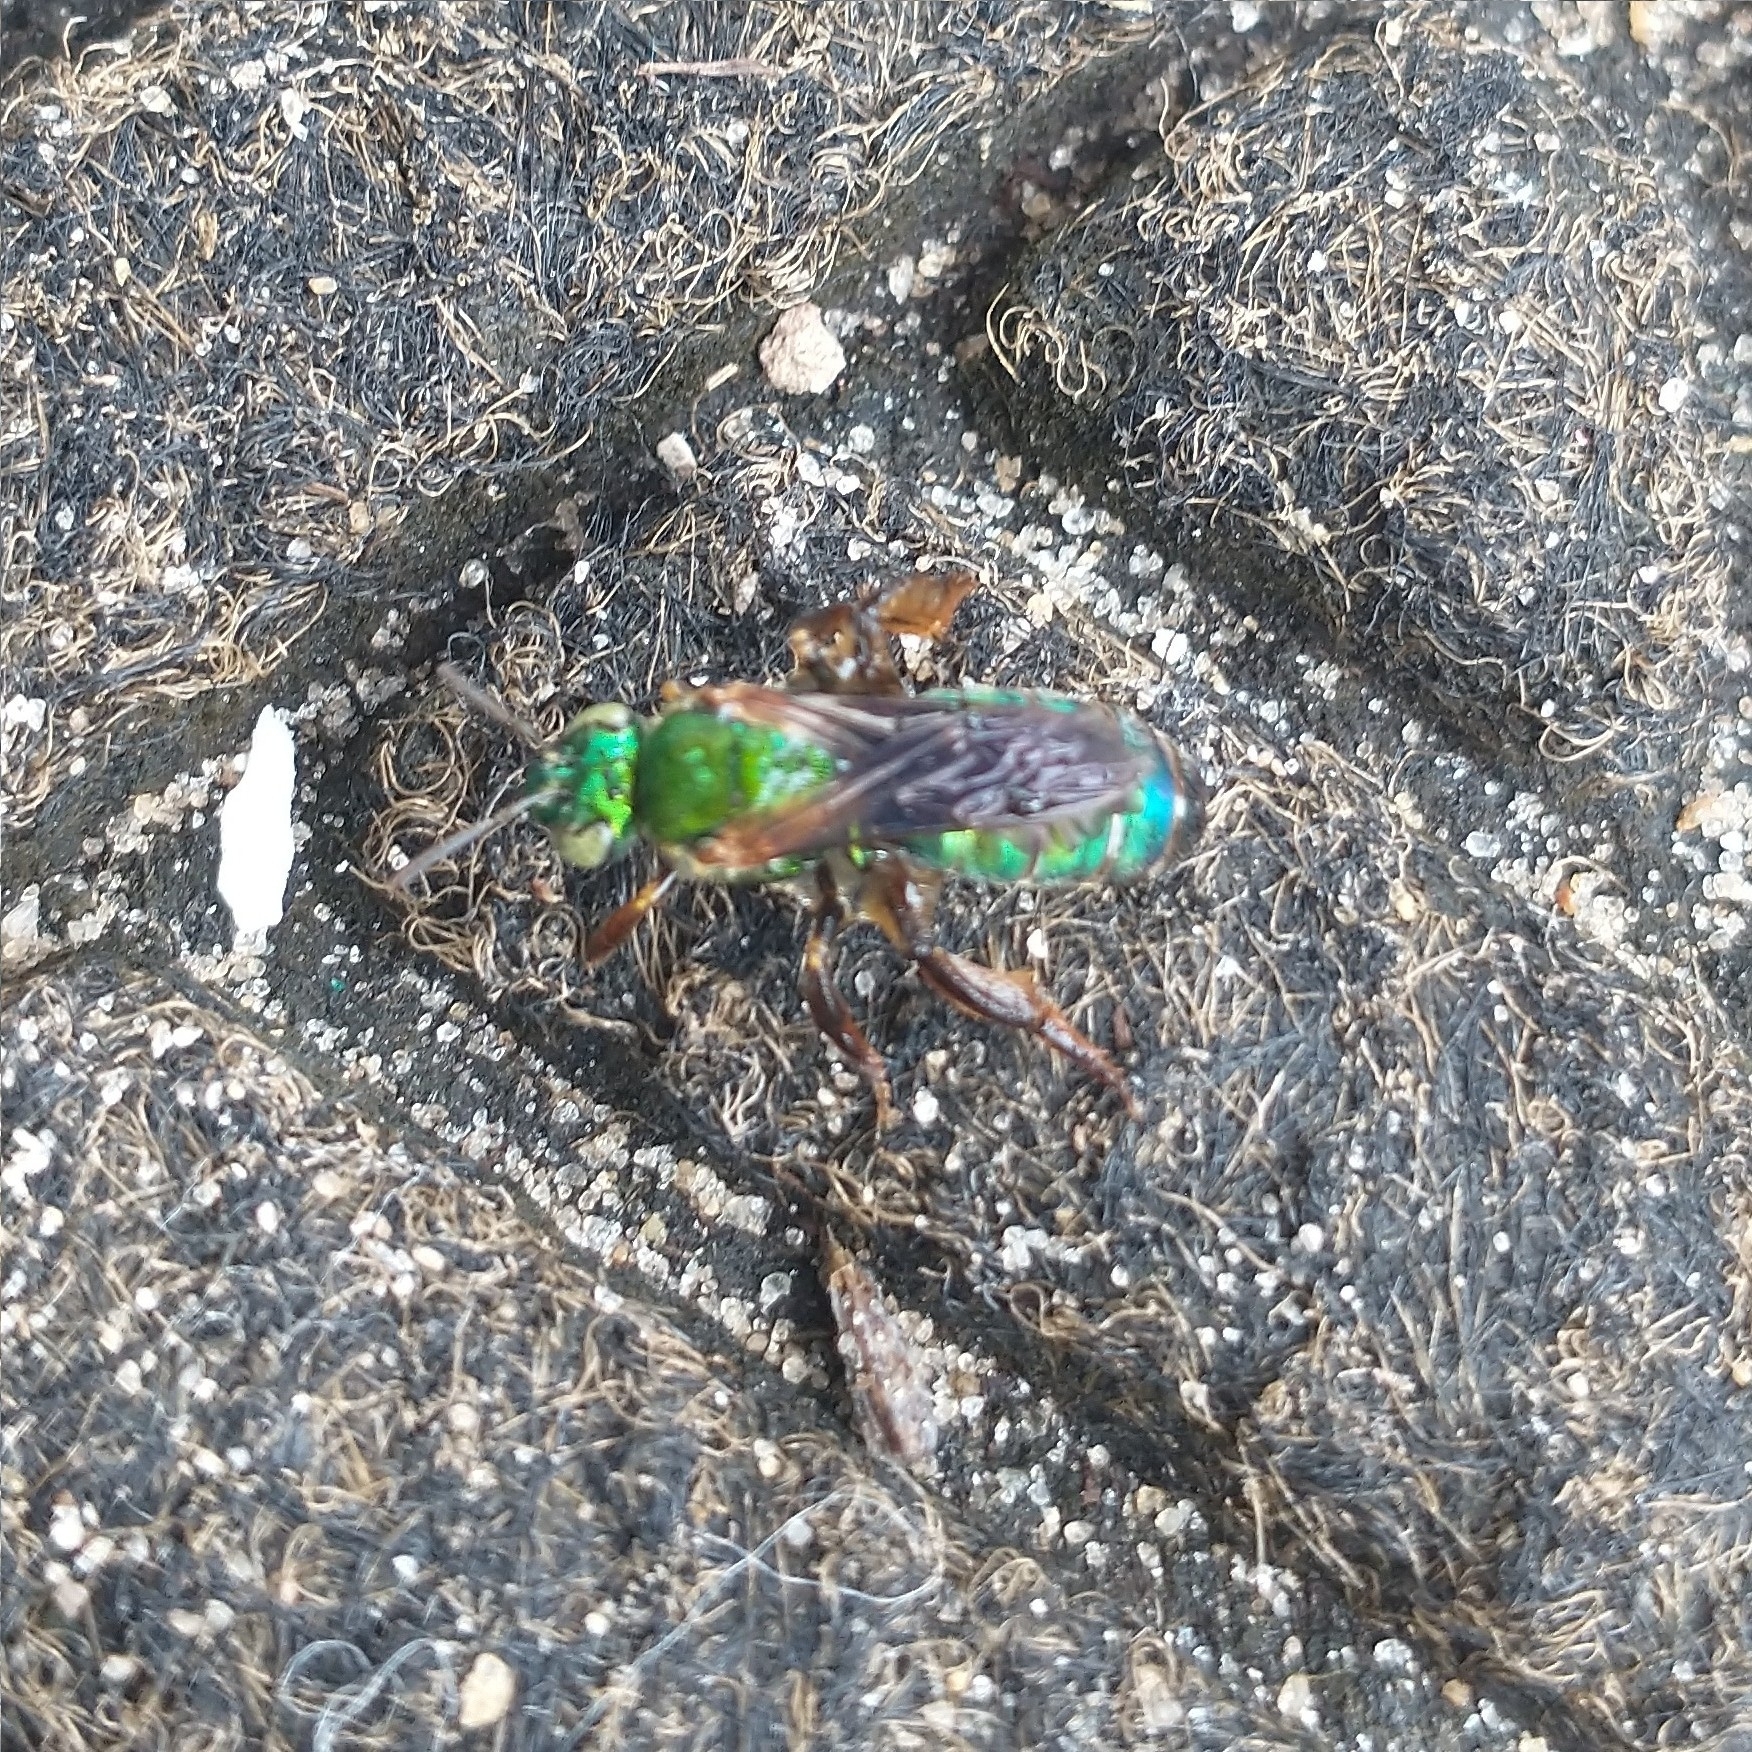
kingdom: Animalia
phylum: Arthropoda
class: Insecta
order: Hymenoptera
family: Halictidae
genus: Agapostemon
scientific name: Agapostemon splendens
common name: Brown-winged striped sweat bee
